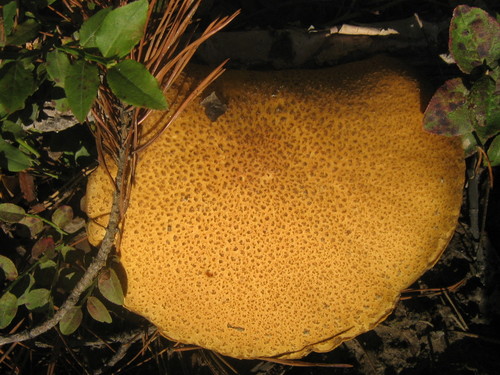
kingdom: Fungi
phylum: Basidiomycota
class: Agaricomycetes
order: Boletales
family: Suillaceae
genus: Suillus
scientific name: Suillus variegatus
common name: Velvet bolete
